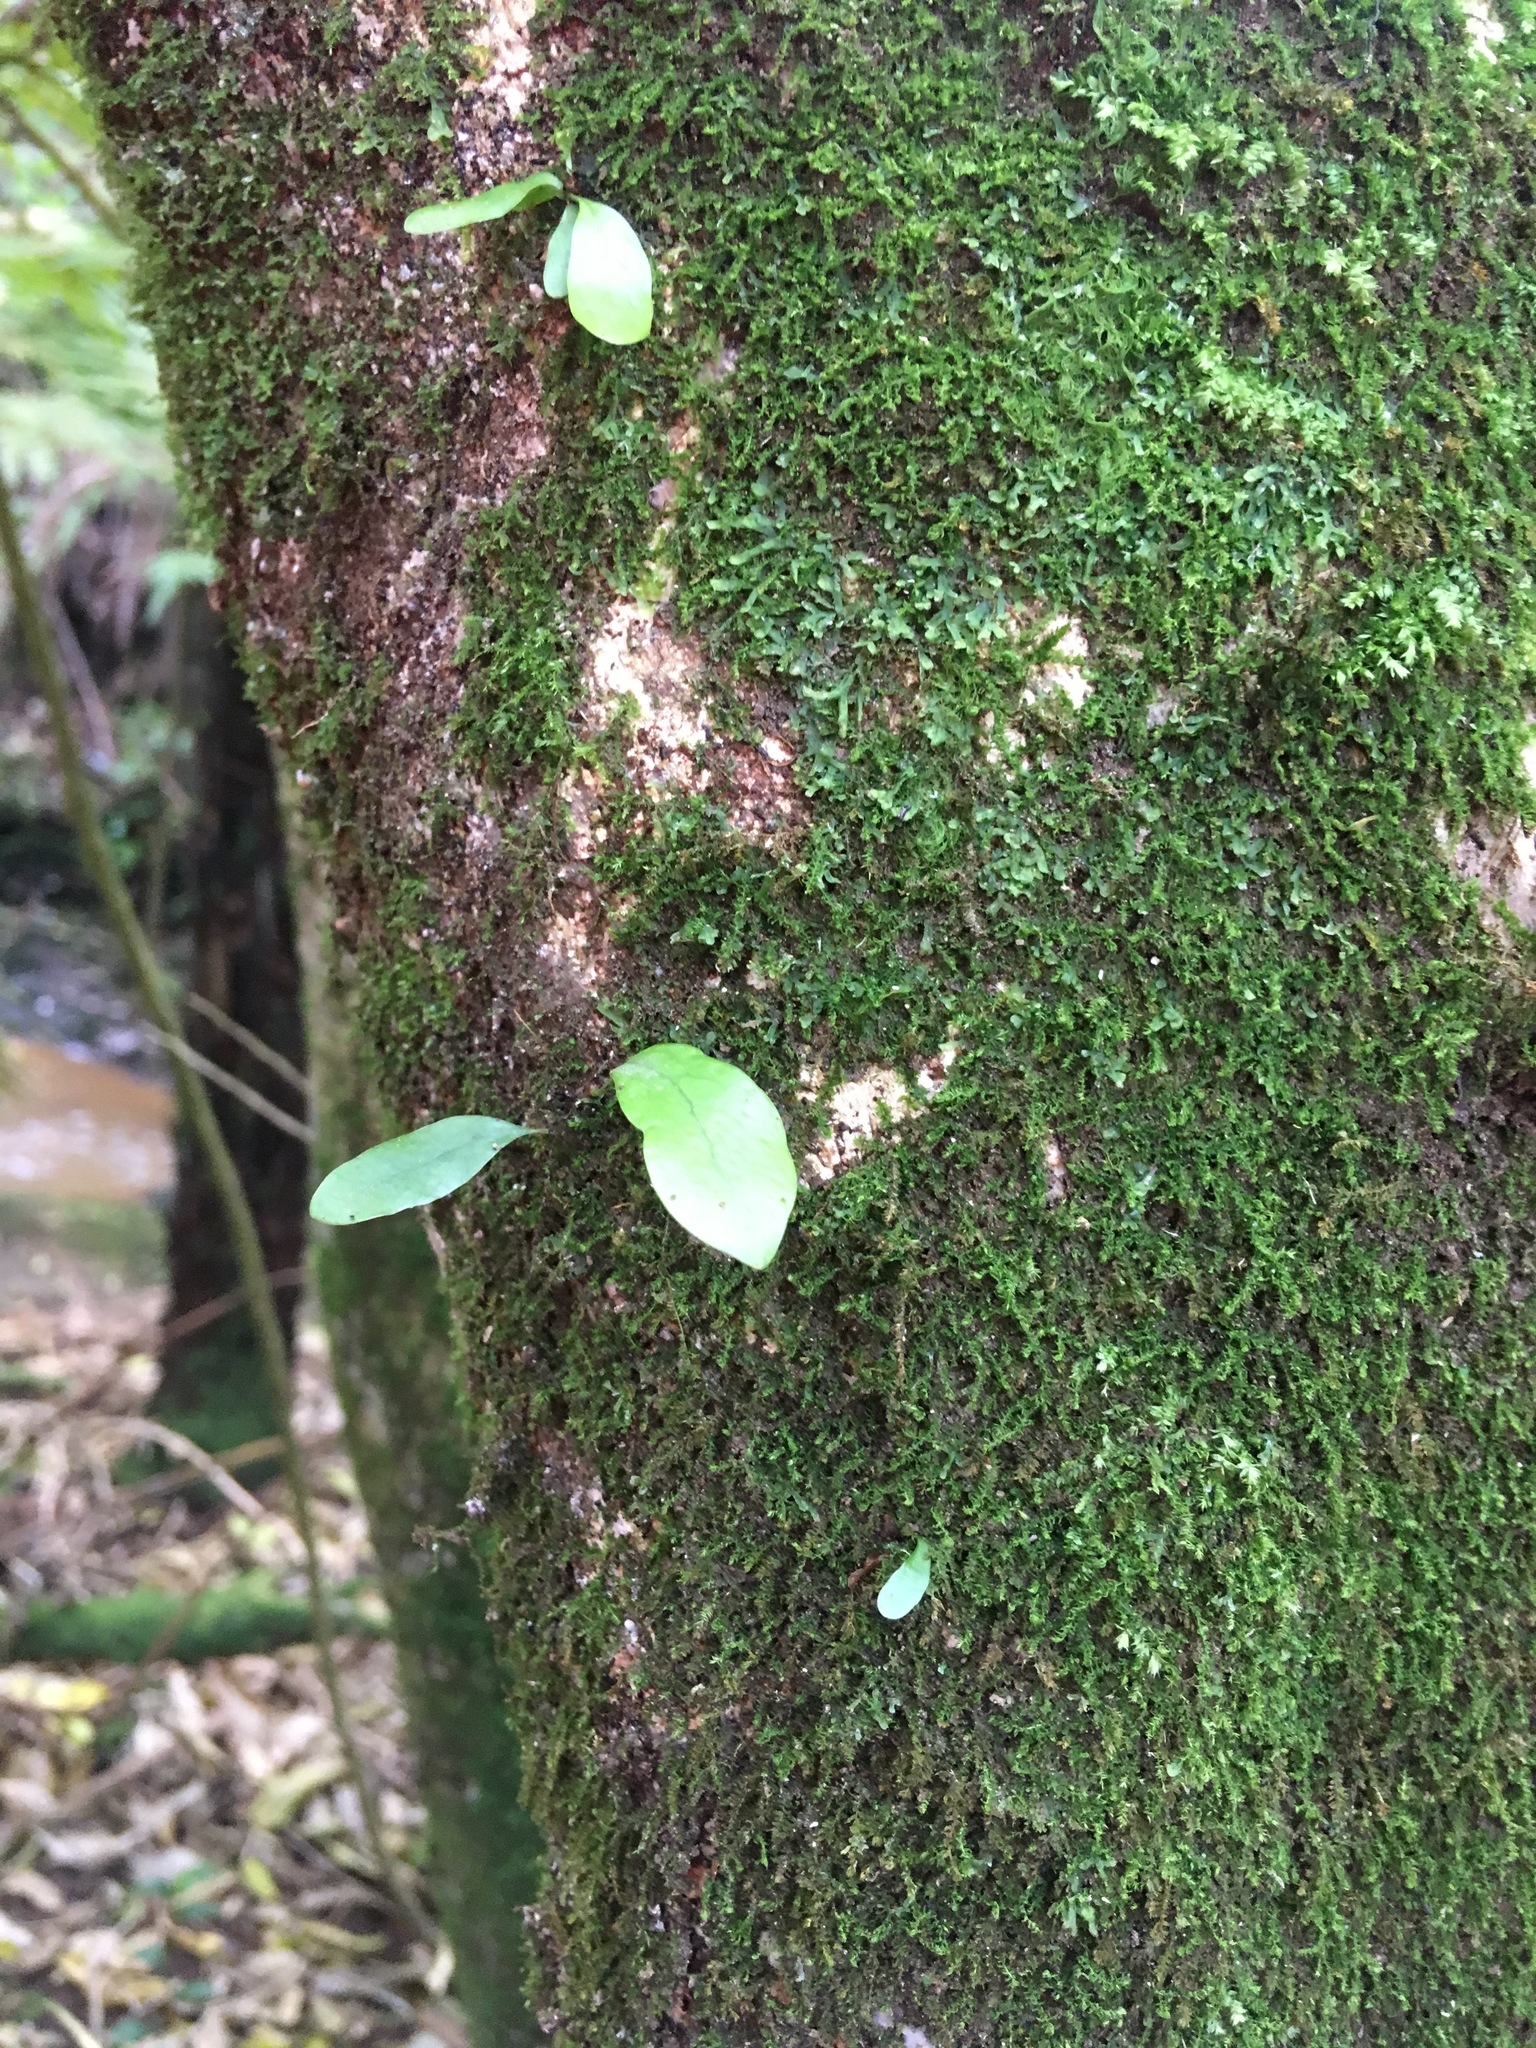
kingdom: Plantae
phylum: Tracheophyta
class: Polypodiopsida
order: Polypodiales
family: Polypodiaceae
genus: Lecanopteris
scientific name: Lecanopteris pustulata
